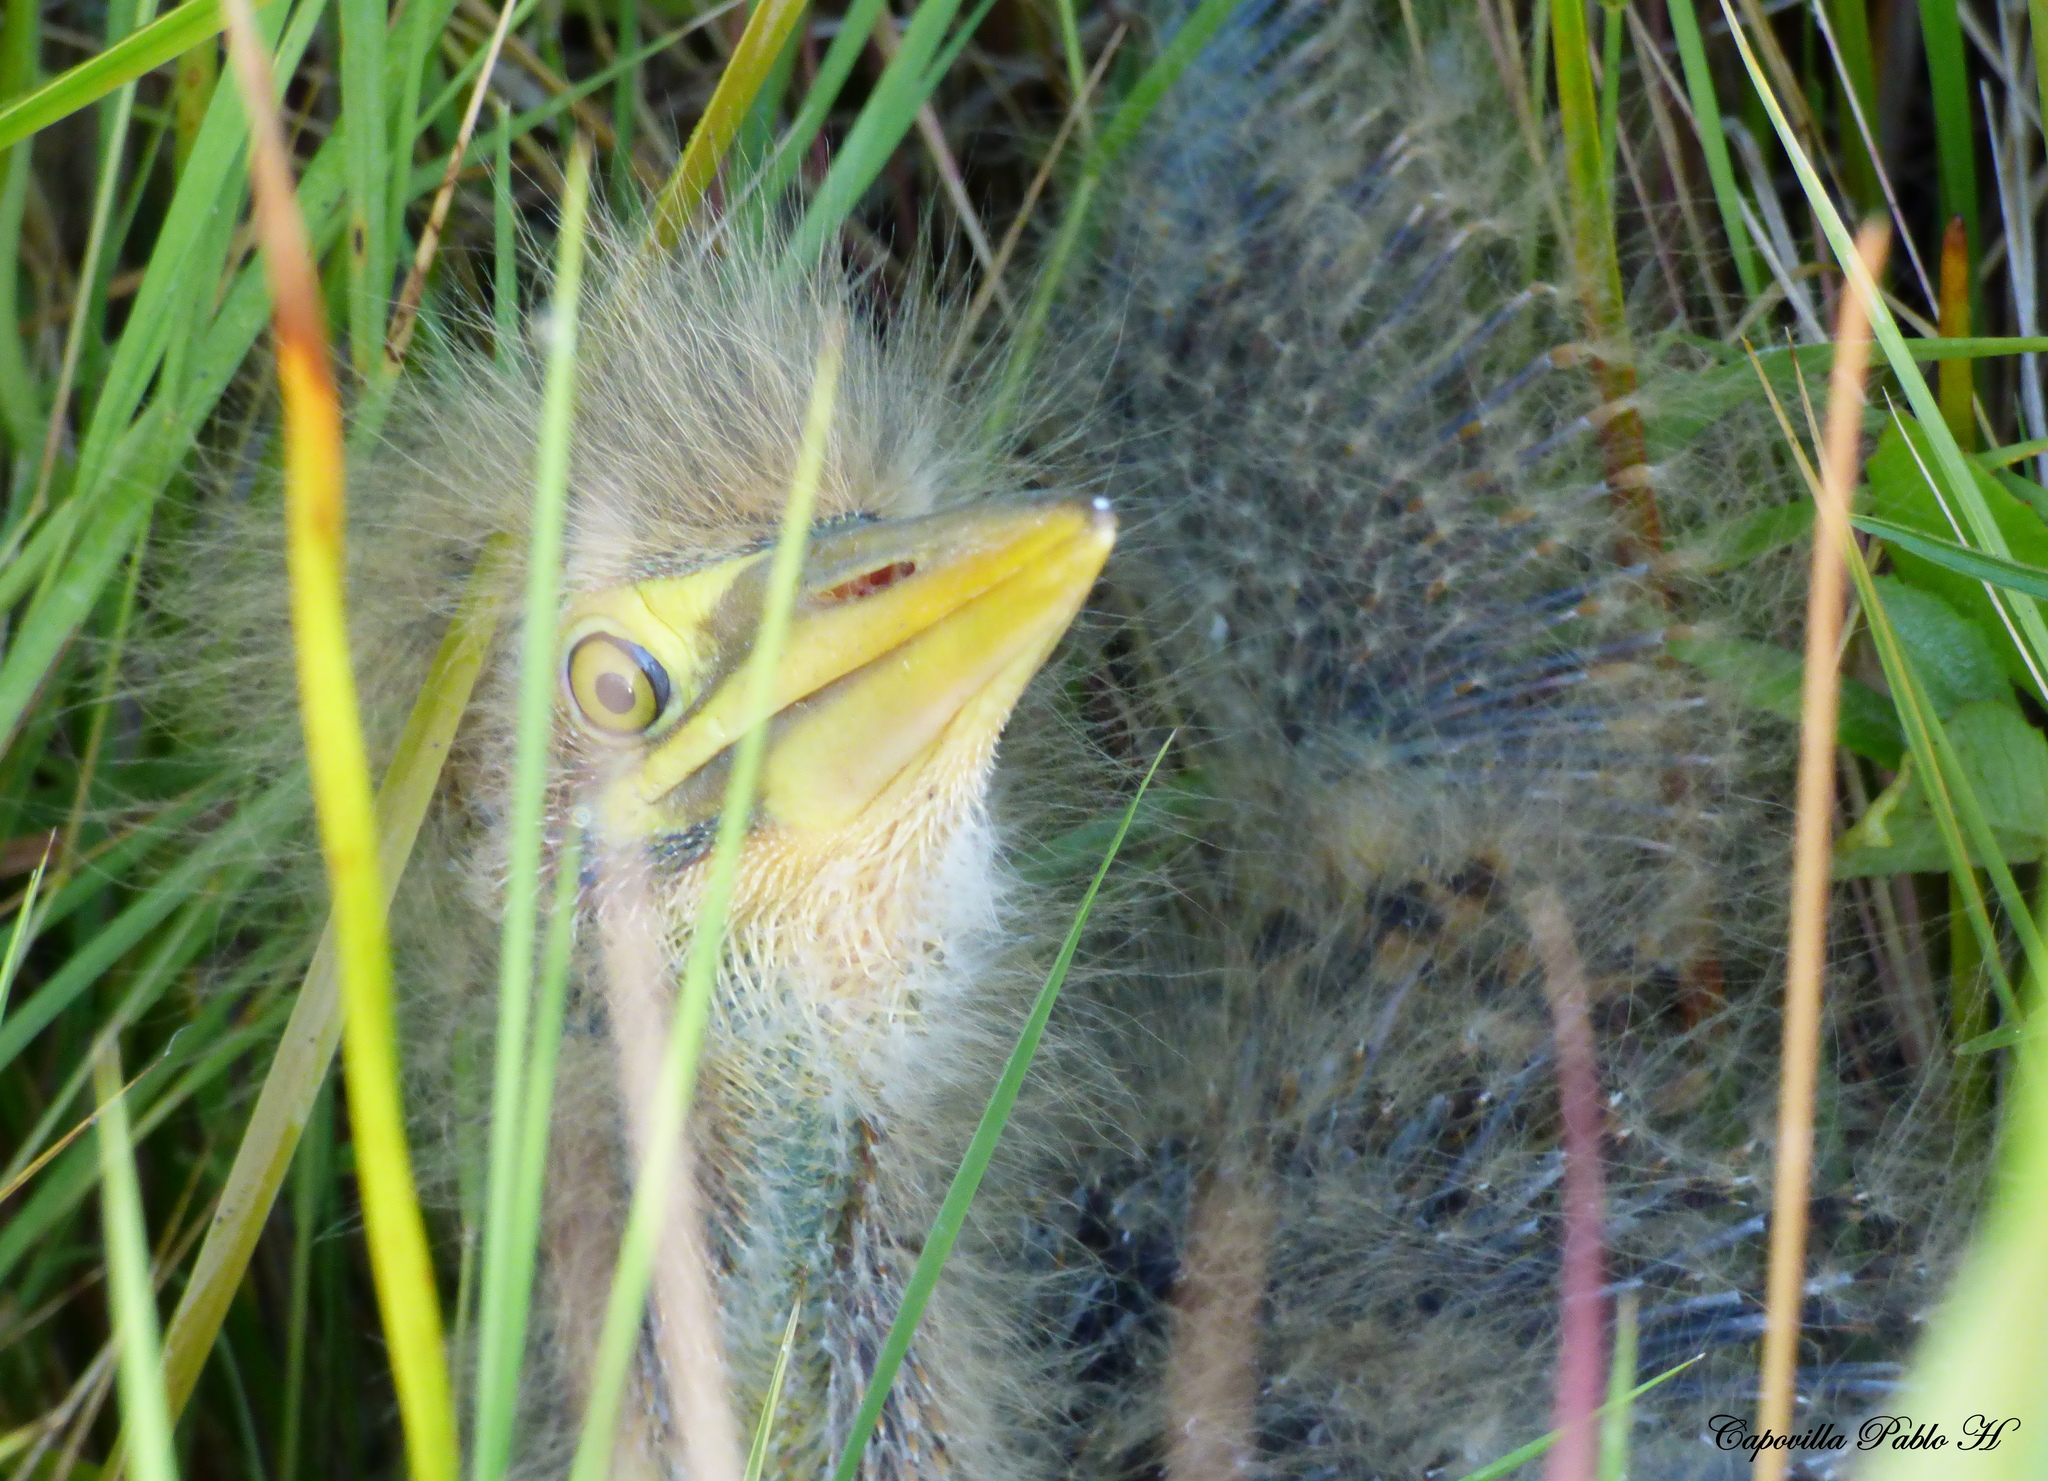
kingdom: Animalia
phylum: Chordata
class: Aves
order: Pelecaniformes
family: Ardeidae
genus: Botaurus
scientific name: Botaurus pinnatus
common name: Pinnated bittern
